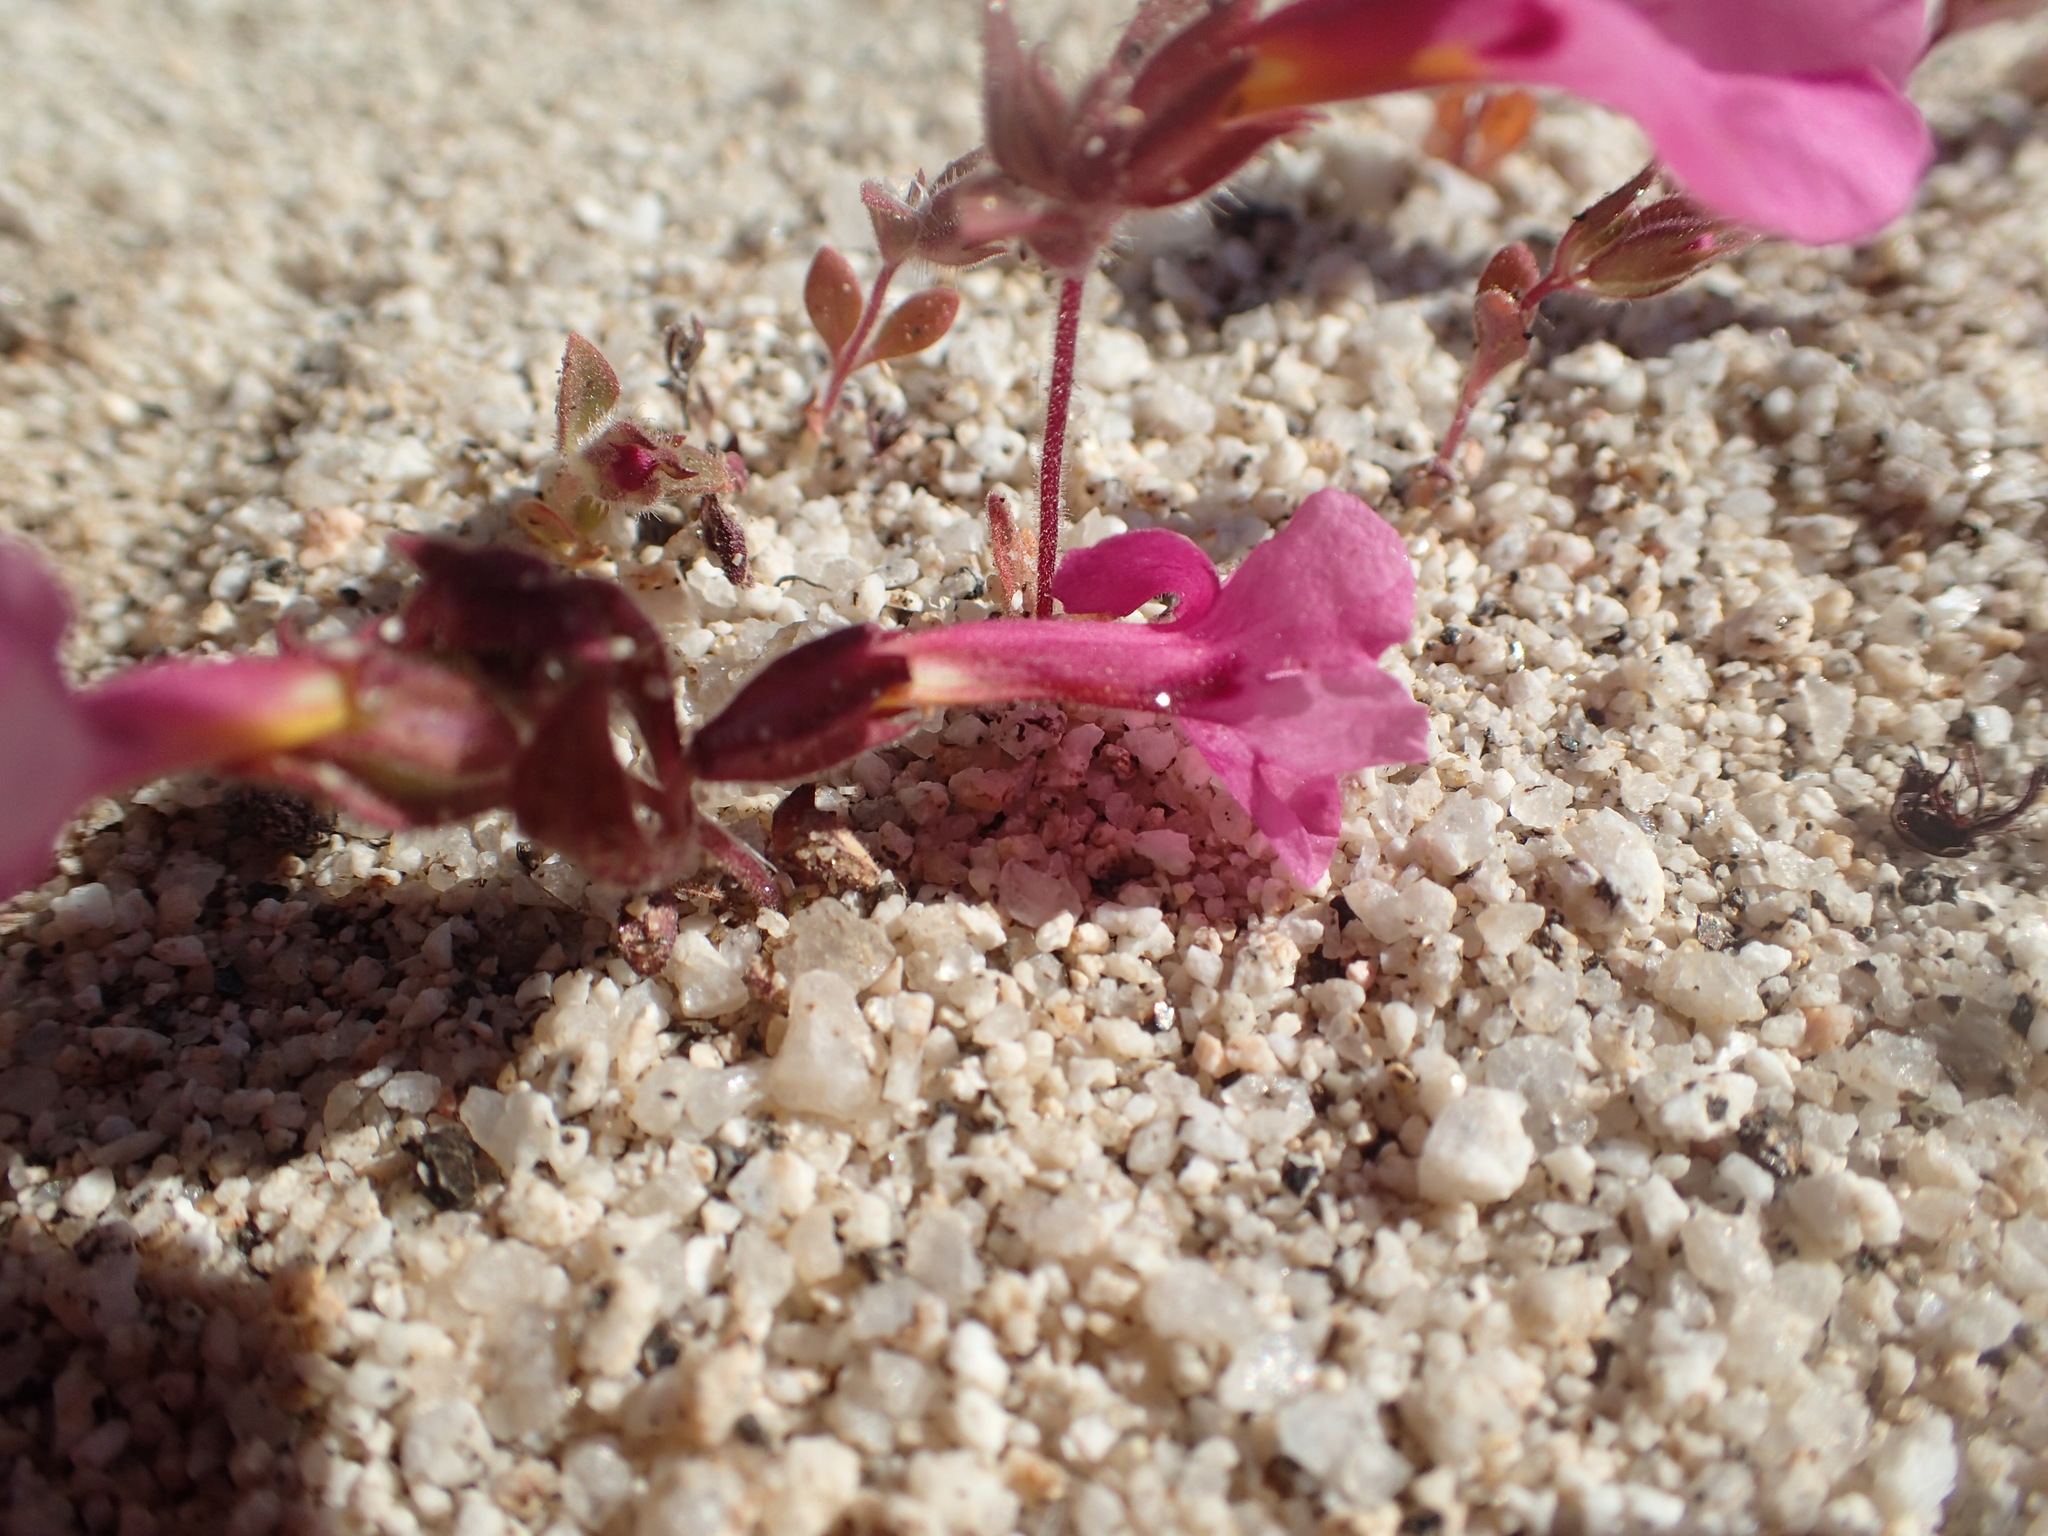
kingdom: Plantae
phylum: Tracheophyta
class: Magnoliopsida
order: Lamiales
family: Phrymaceae
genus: Diplacus
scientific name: Diplacus bigelovii
